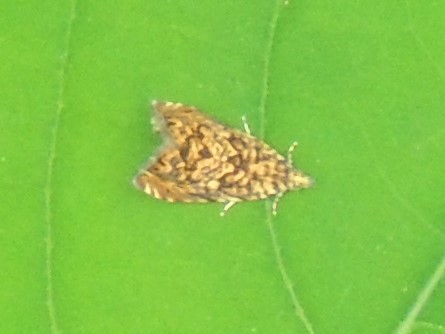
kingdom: Animalia
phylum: Arthropoda
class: Insecta
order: Lepidoptera
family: Tortricidae
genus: Dichrorampha
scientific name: Dichrorampha leopardana
